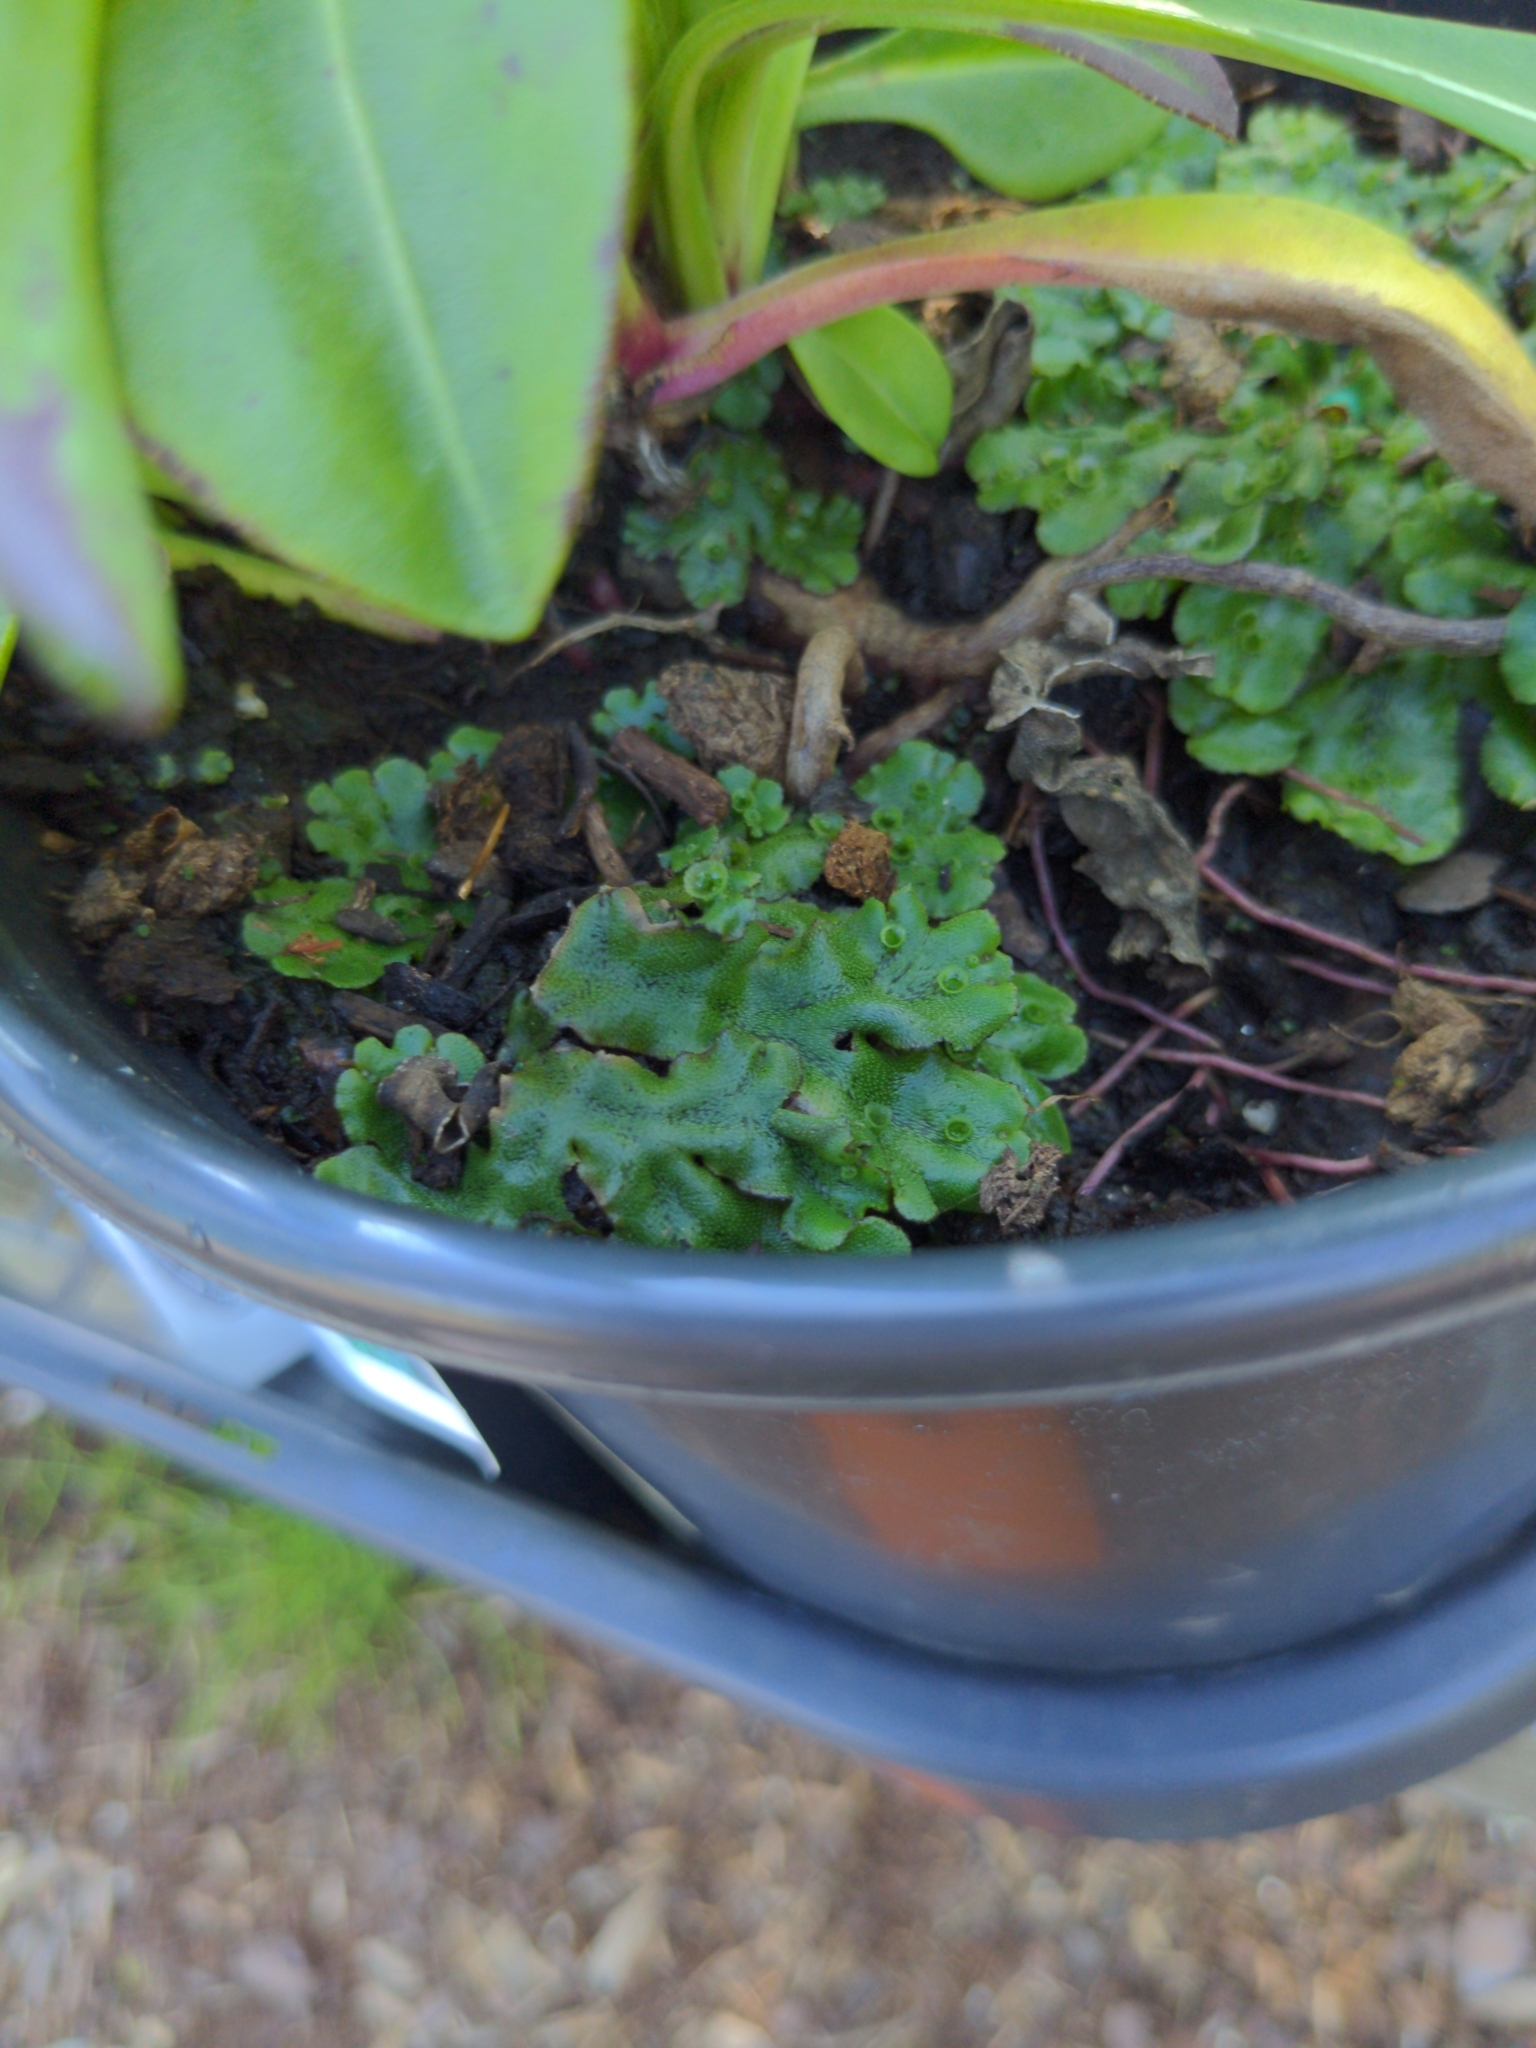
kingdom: Plantae
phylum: Marchantiophyta
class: Marchantiopsida
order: Marchantiales
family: Marchantiaceae
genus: Marchantia
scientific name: Marchantia polymorpha
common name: Common liverwort
